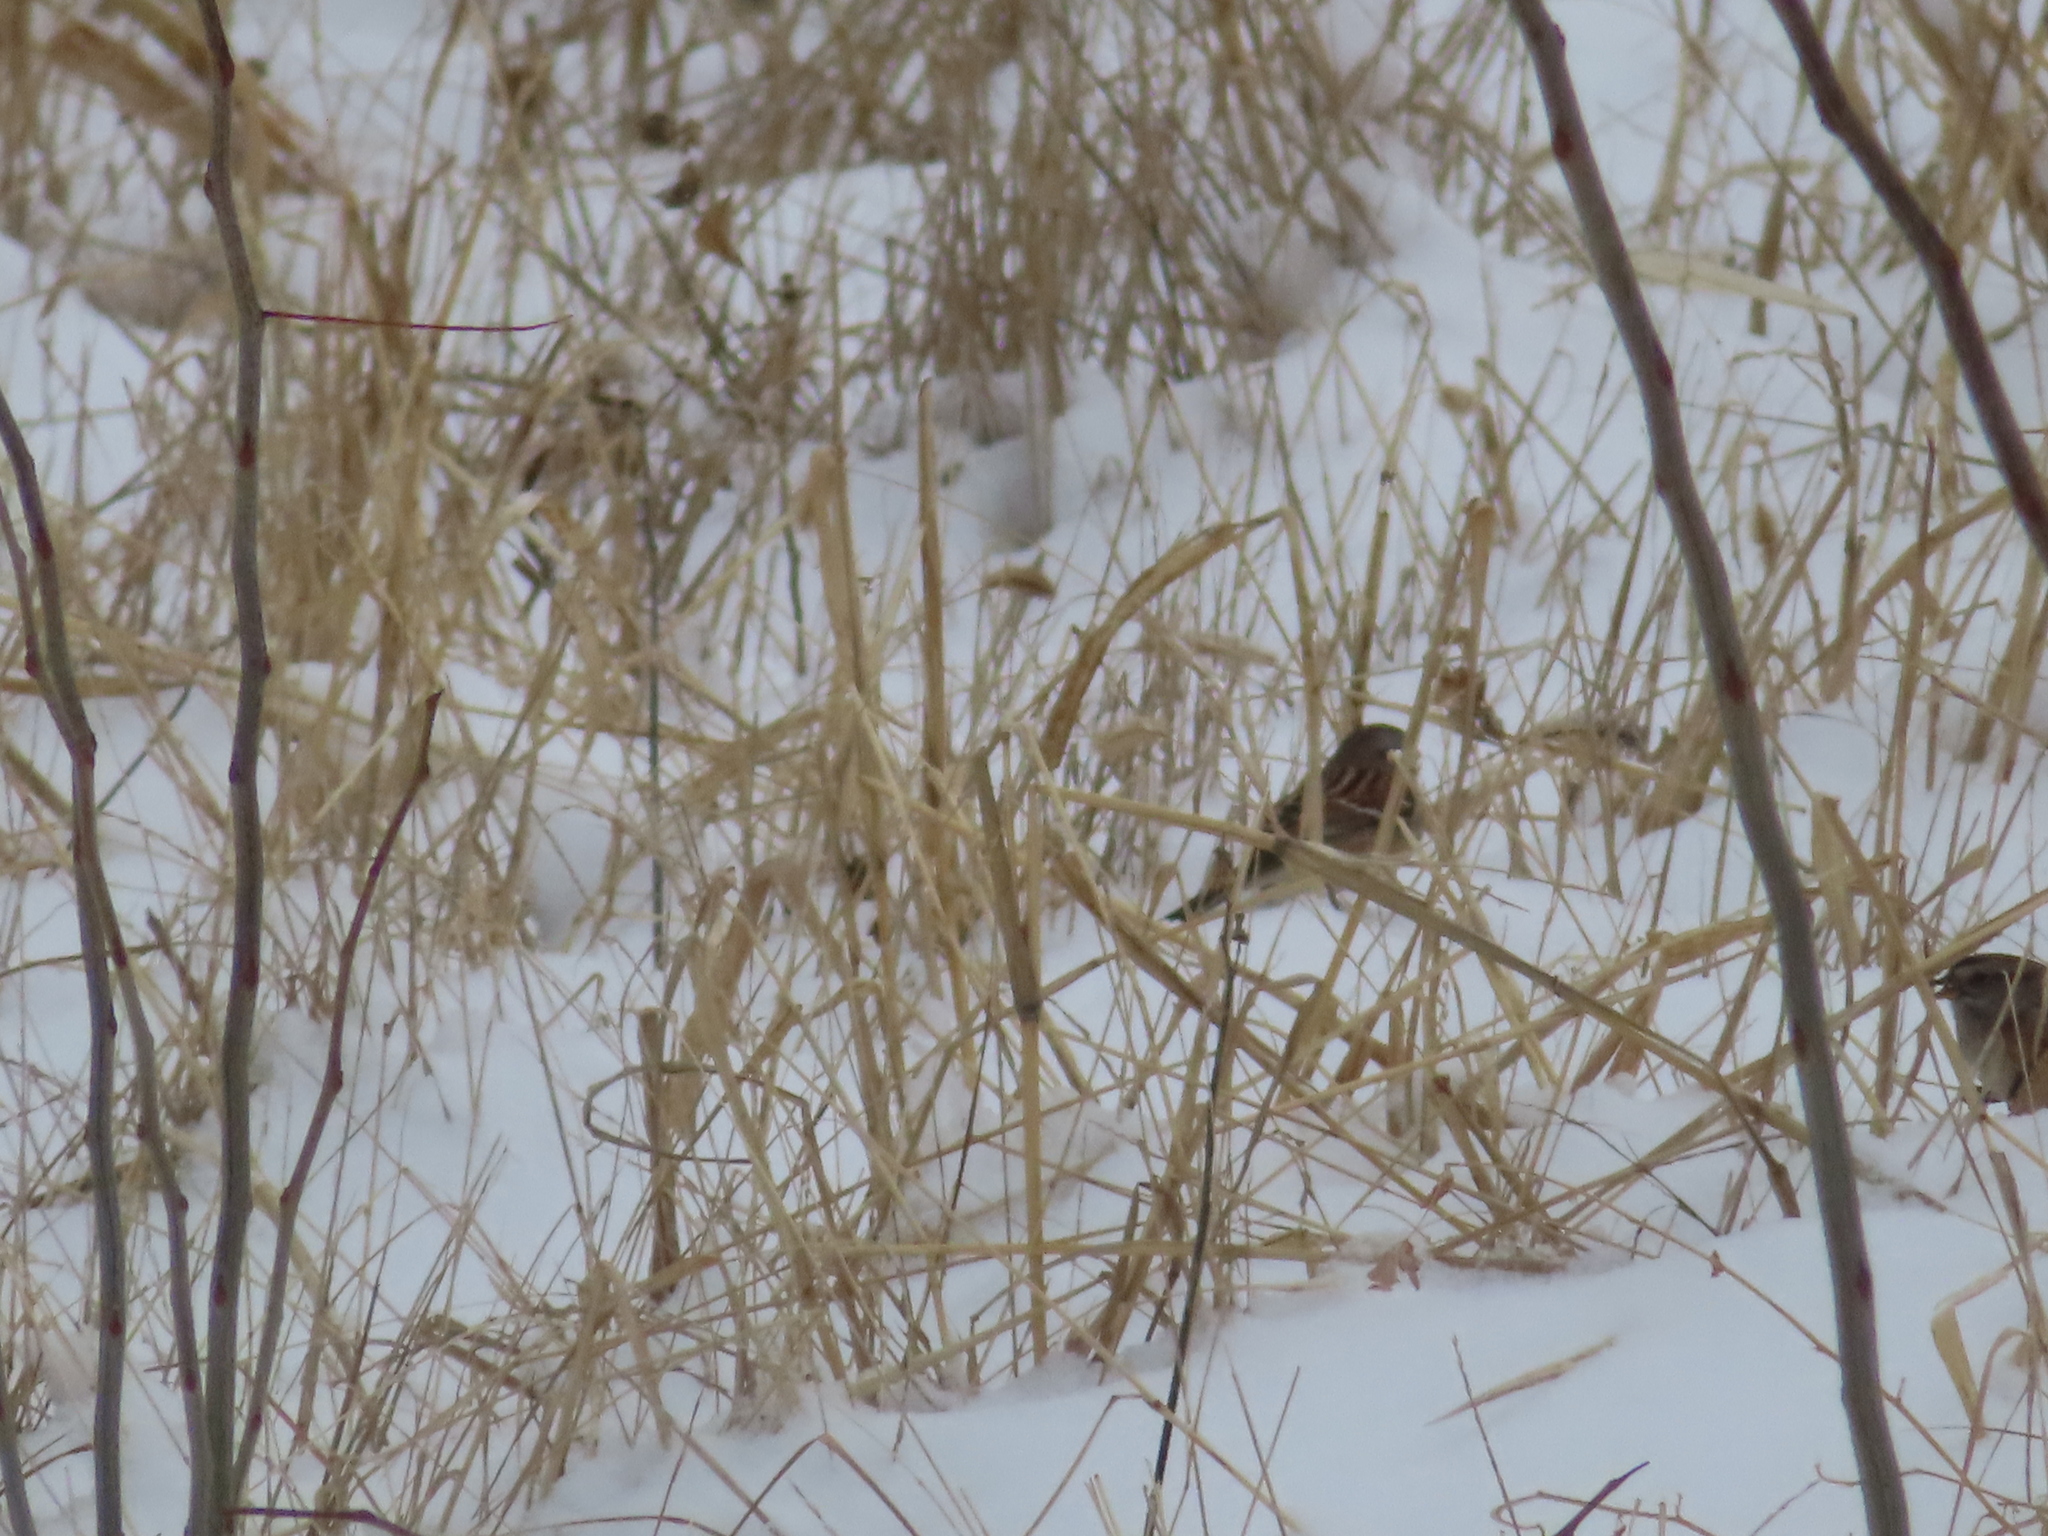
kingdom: Animalia
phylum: Chordata
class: Aves
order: Passeriformes
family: Passerellidae
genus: Spizelloides
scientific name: Spizelloides arborea
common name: American tree sparrow
